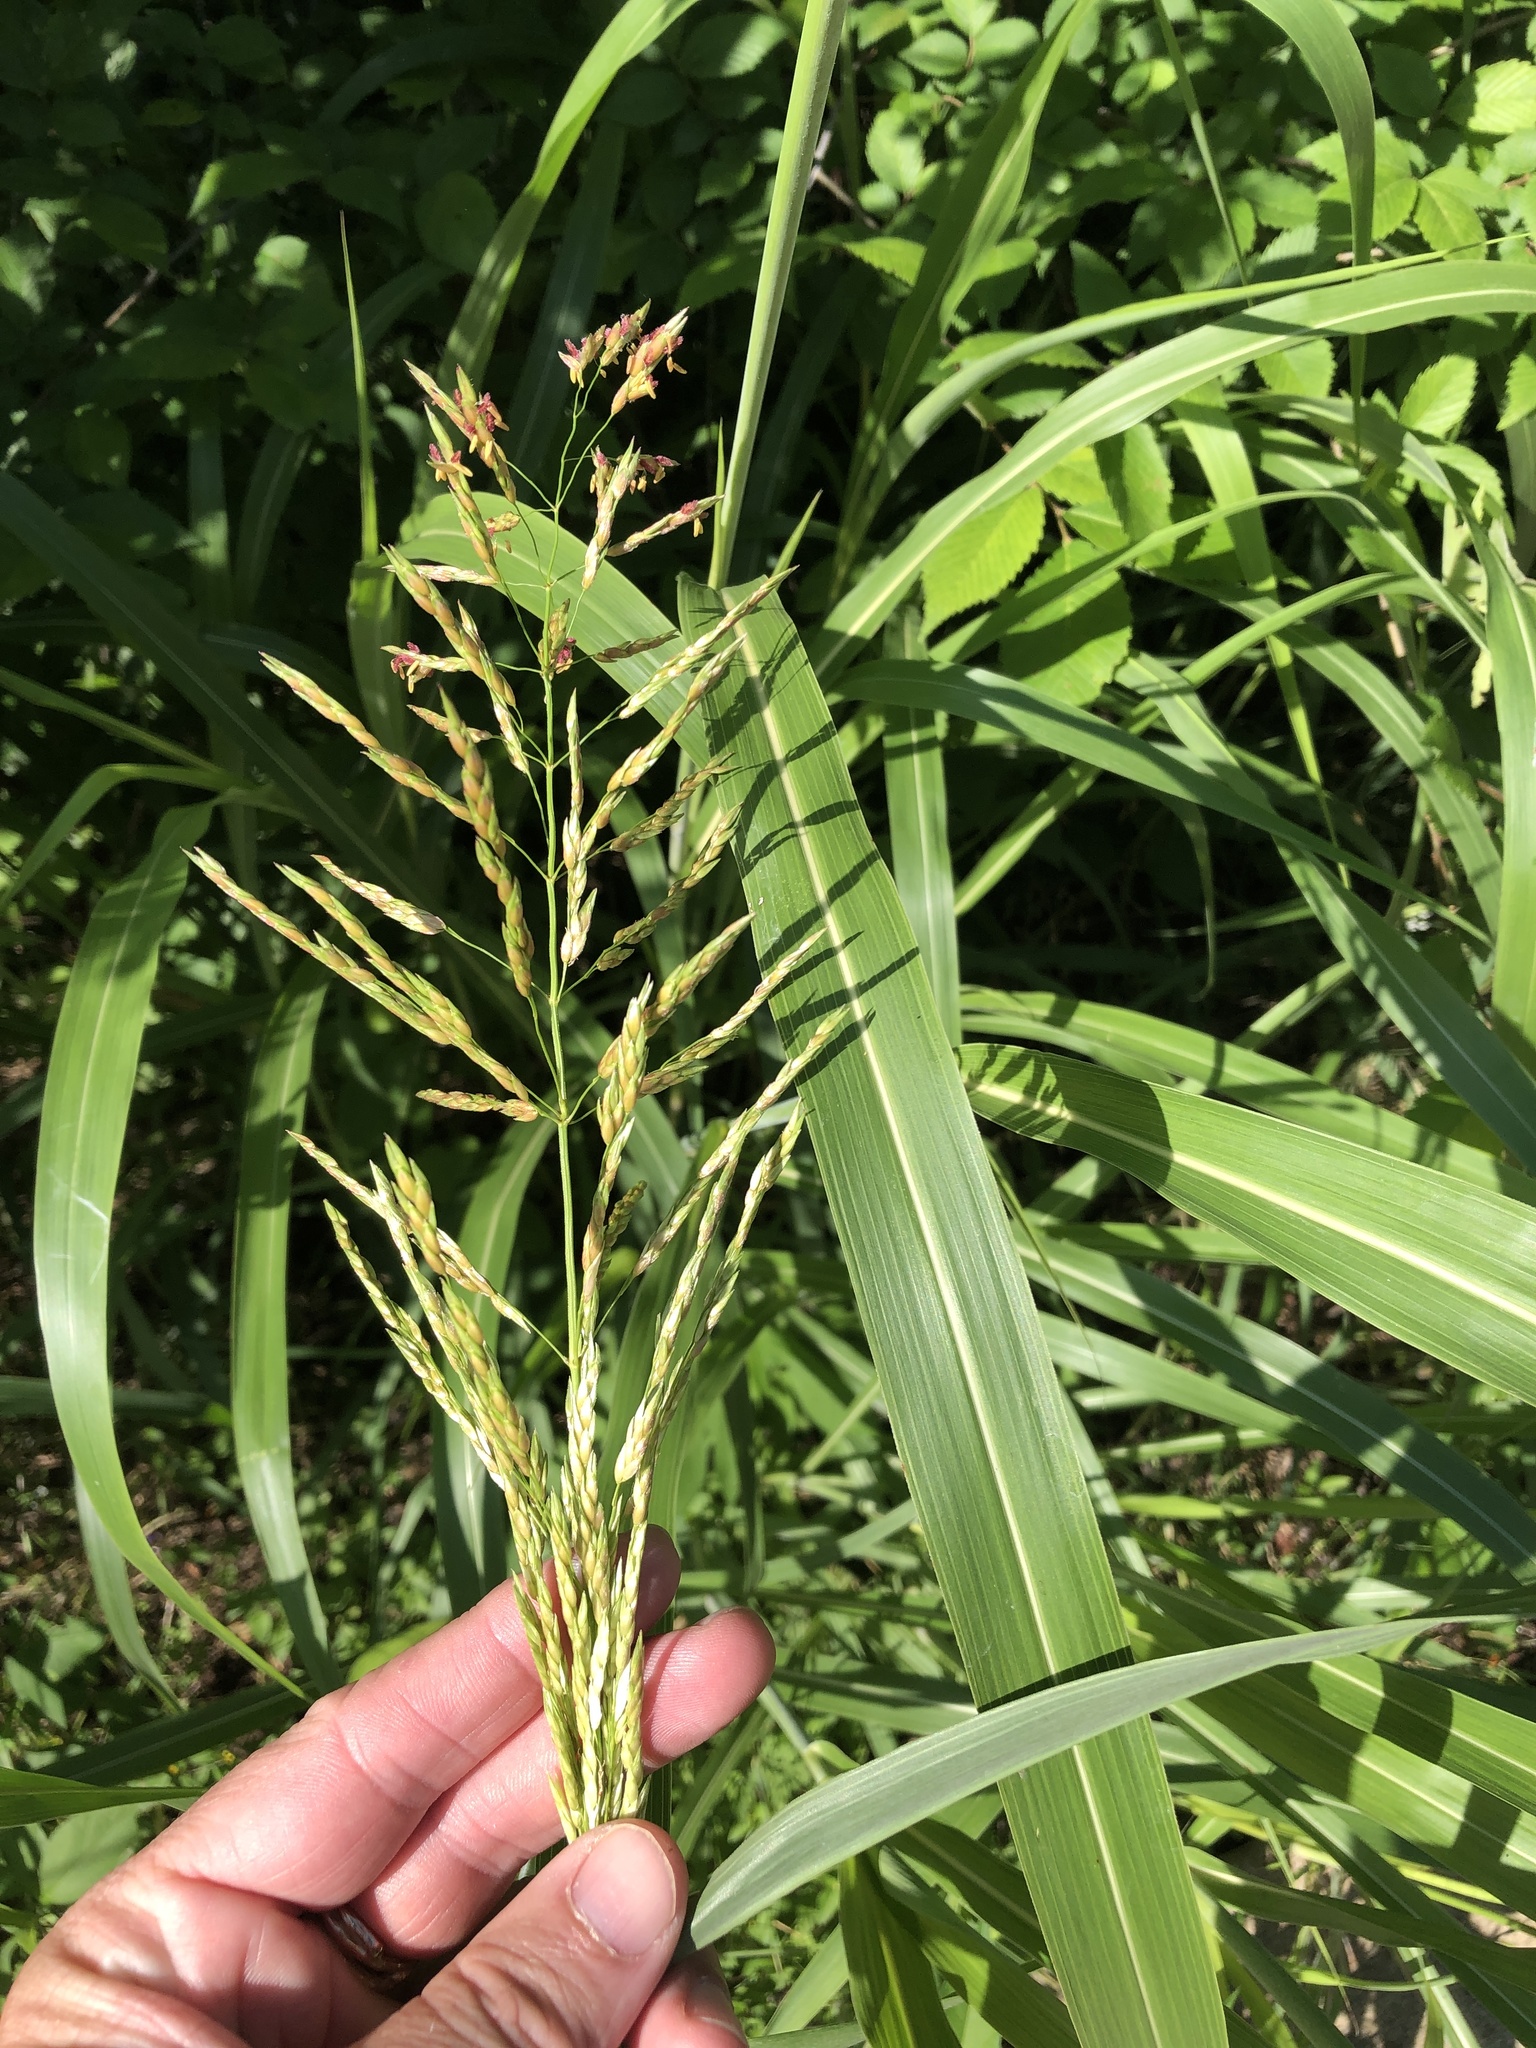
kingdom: Plantae
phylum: Tracheophyta
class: Liliopsida
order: Poales
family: Poaceae
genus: Sorghum
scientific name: Sorghum halepense
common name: Johnson-grass
